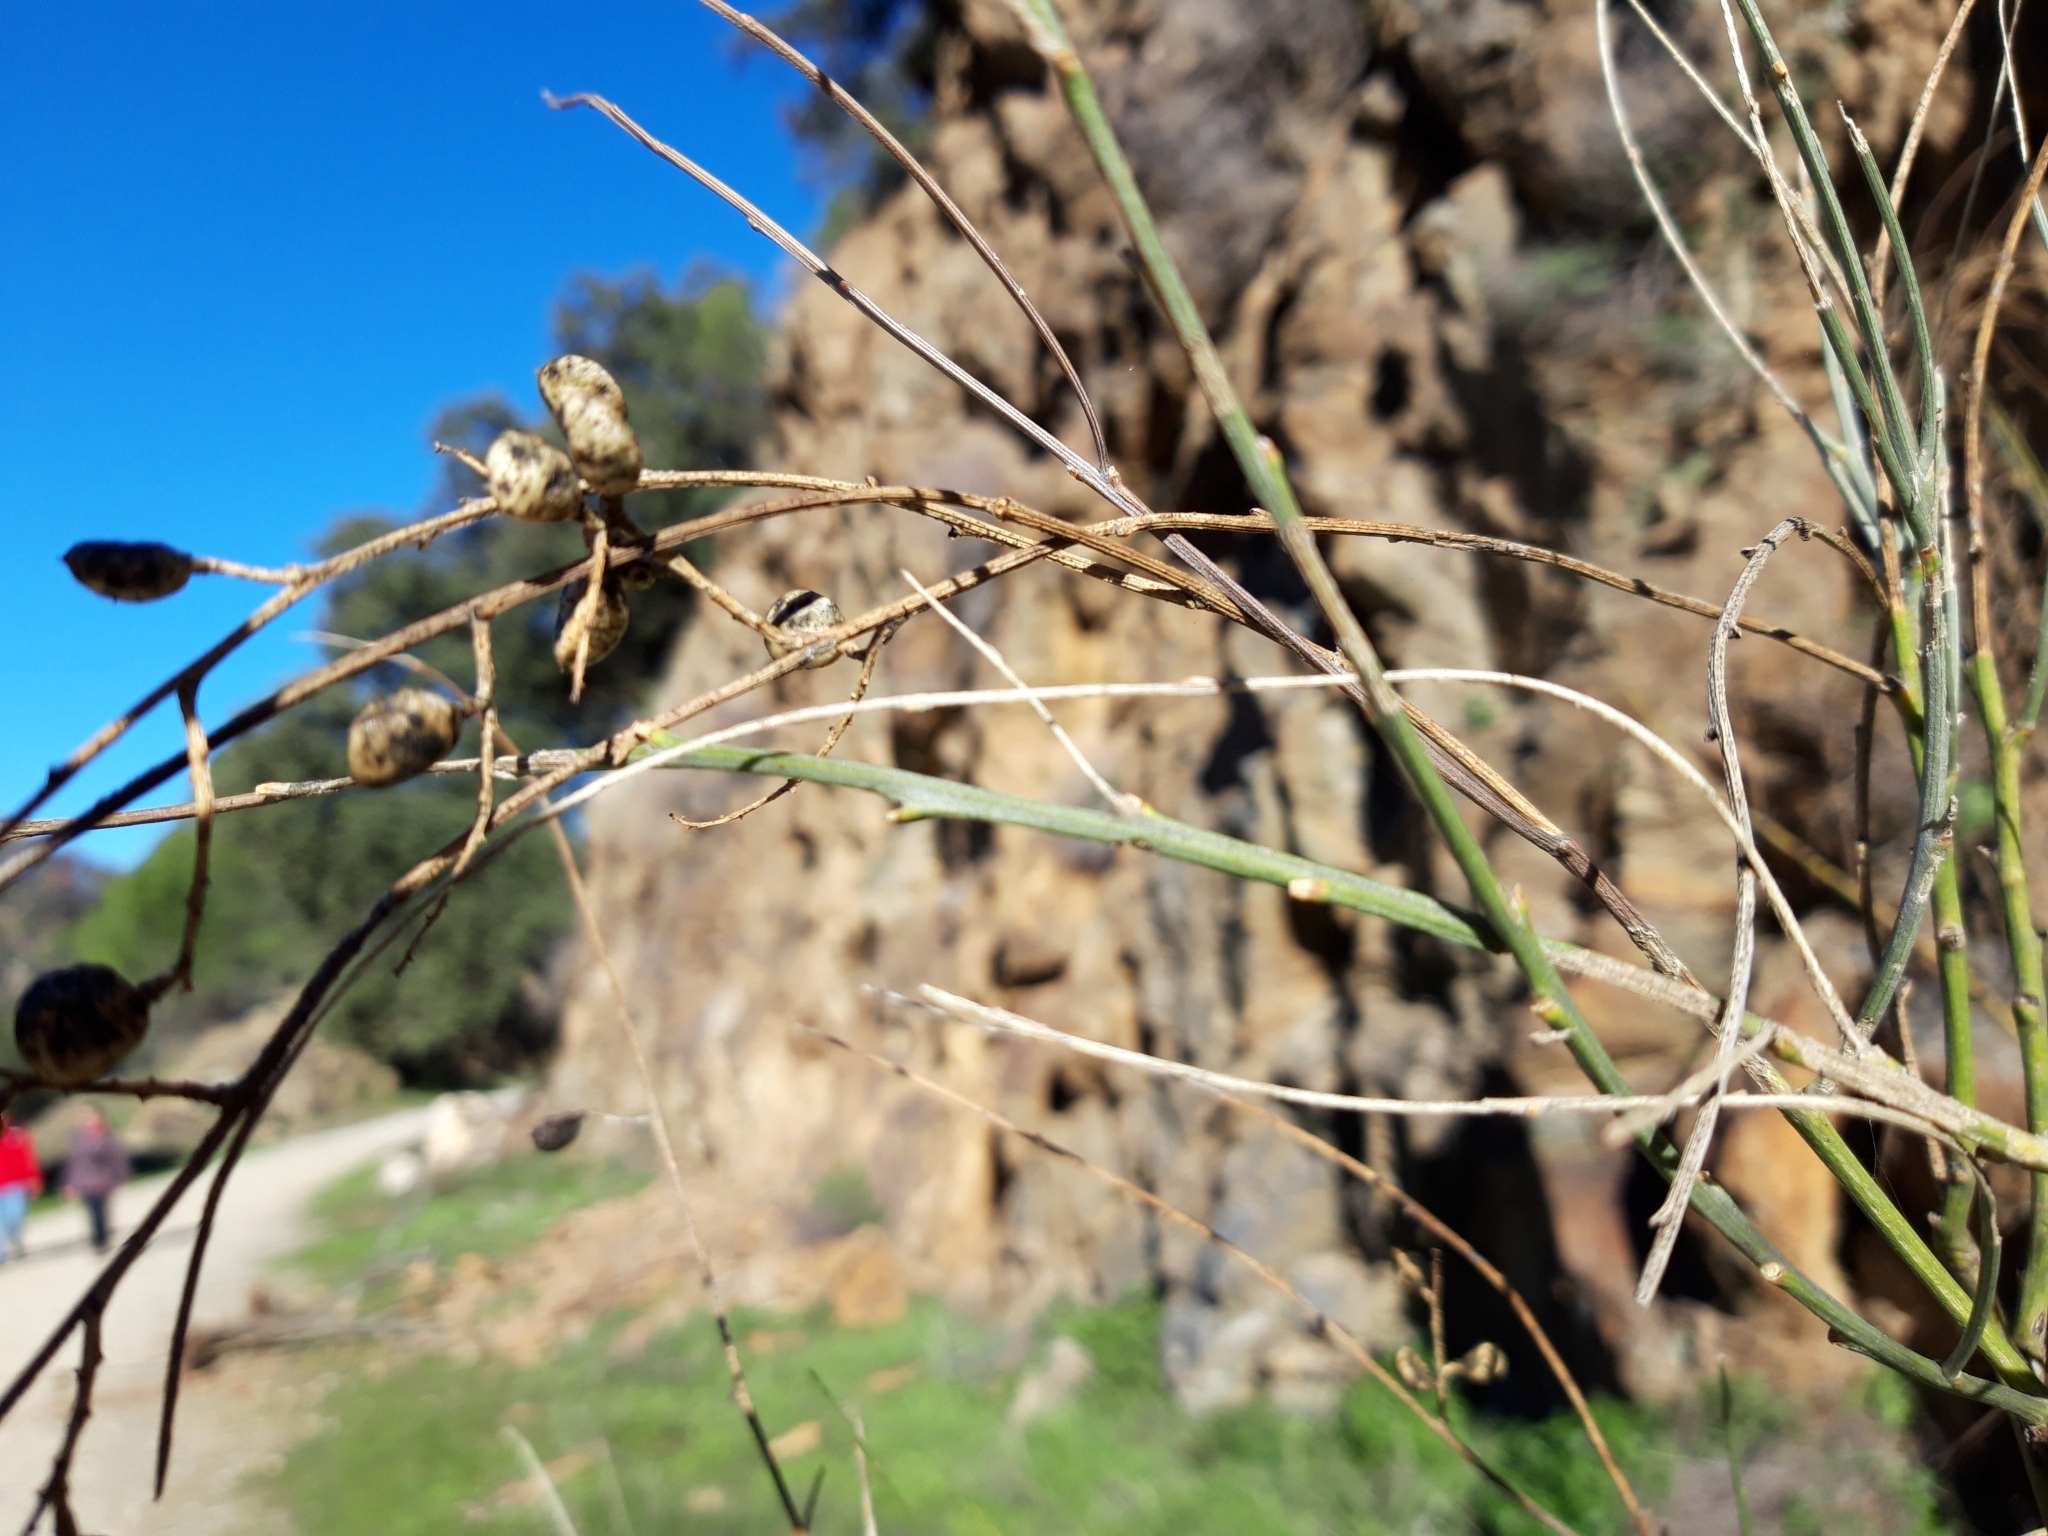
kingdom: Plantae
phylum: Tracheophyta
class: Magnoliopsida
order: Fabales
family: Fabaceae
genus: Retama
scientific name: Retama sphaerocarpa
